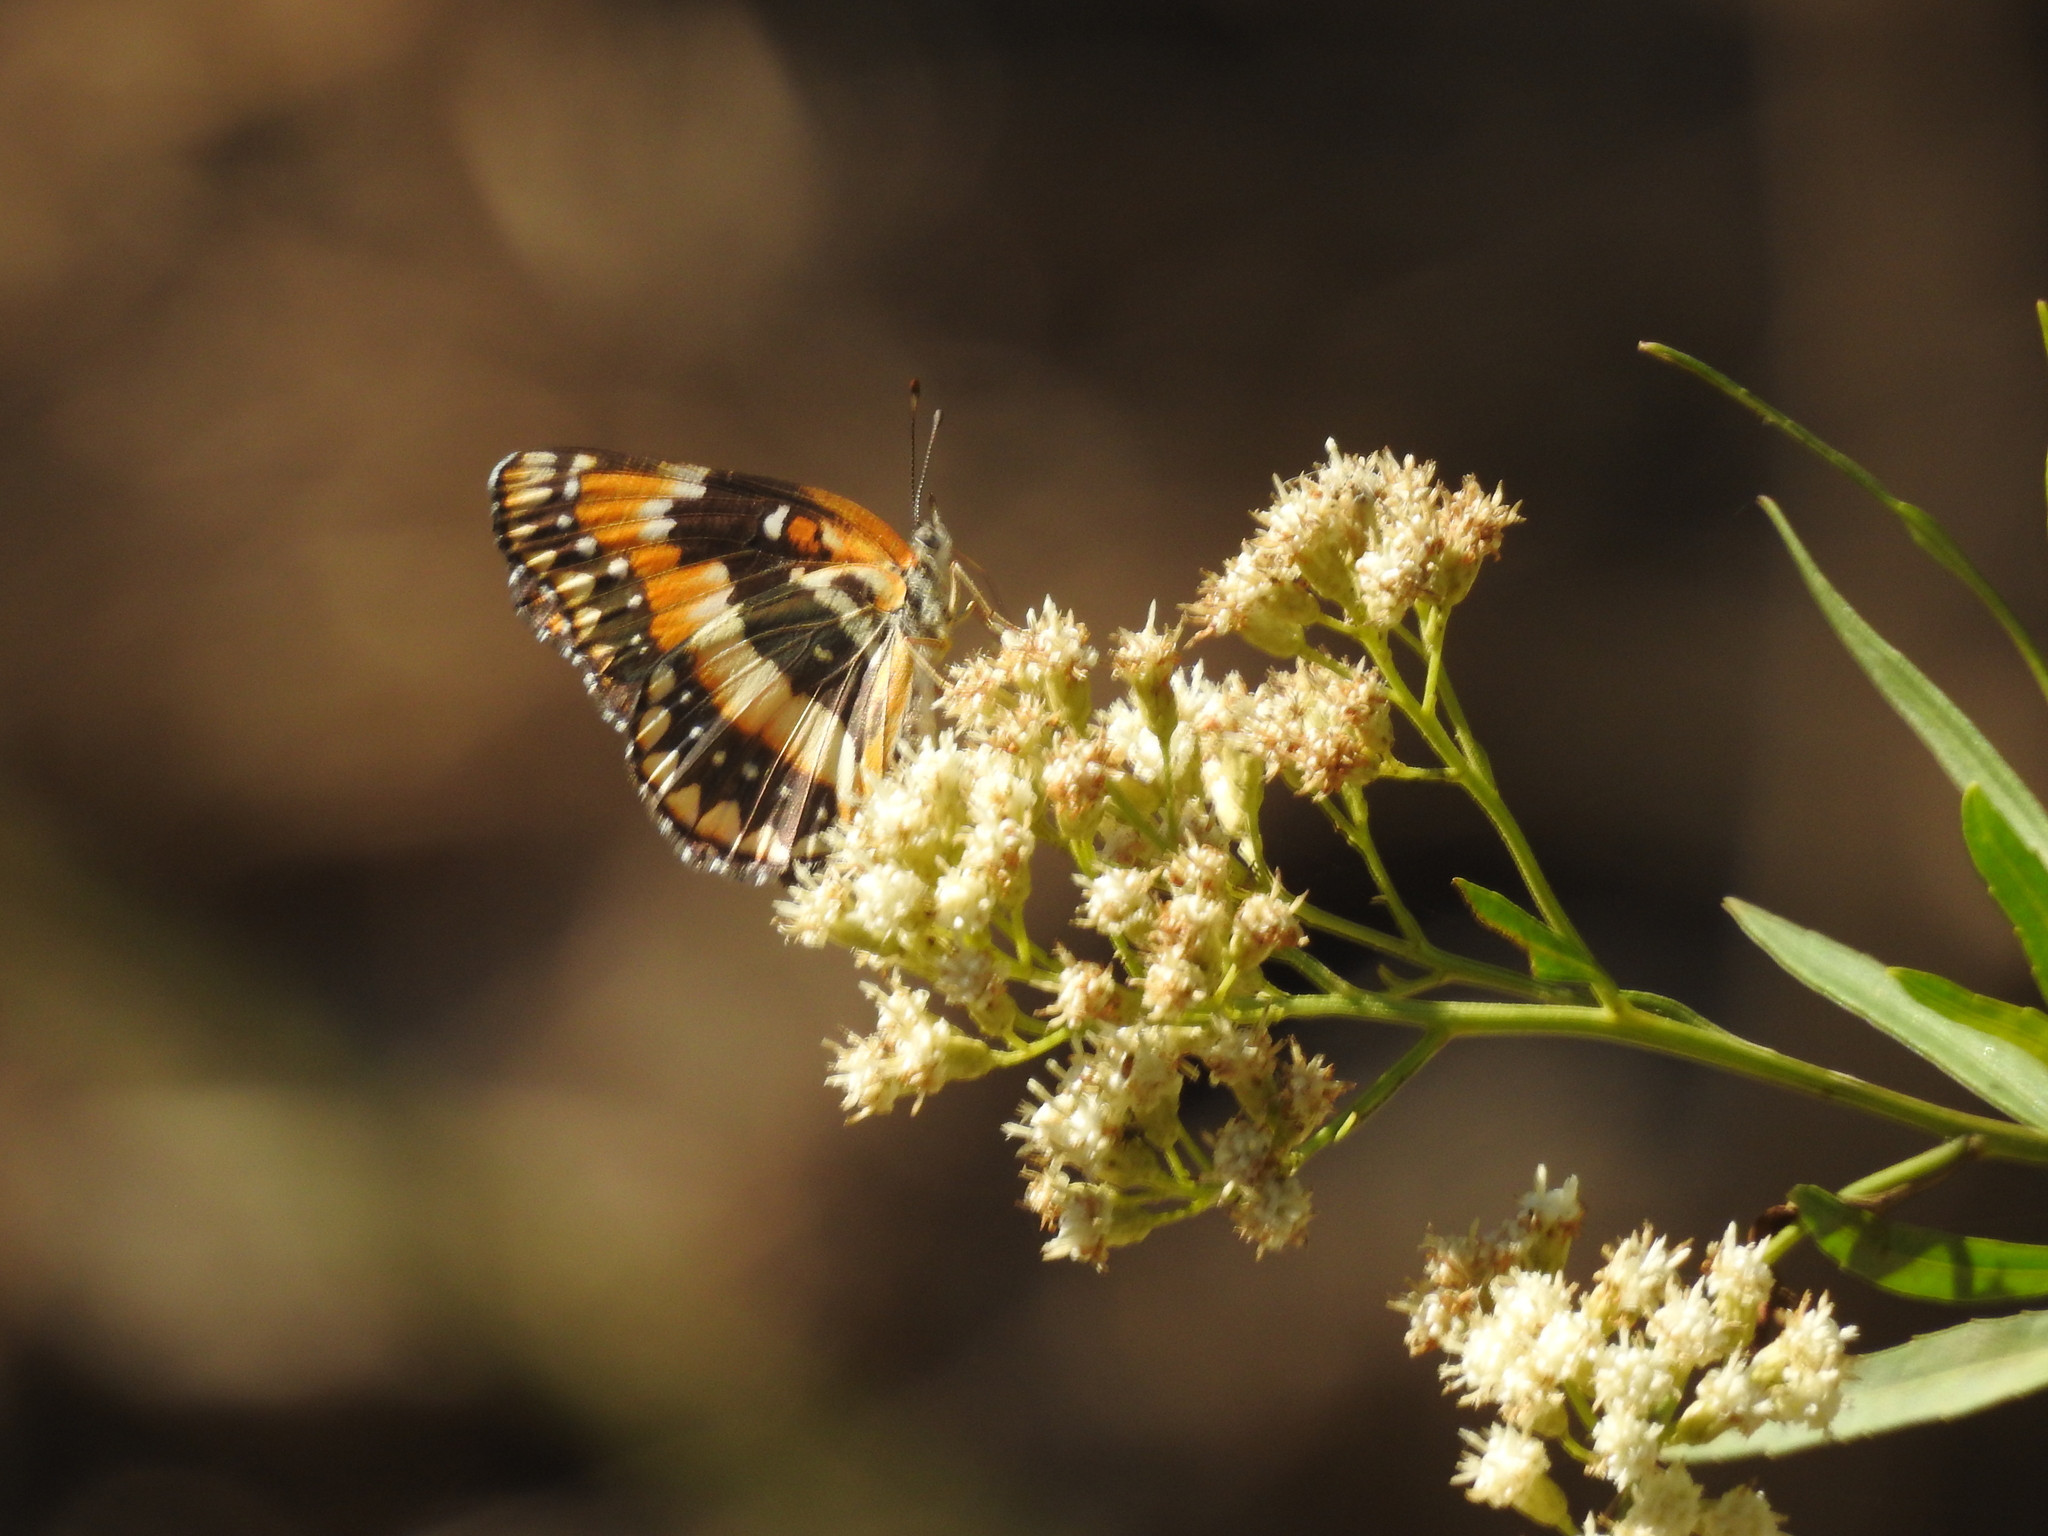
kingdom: Animalia
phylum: Arthropoda
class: Insecta
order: Lepidoptera
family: Nymphalidae
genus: Chlosyne
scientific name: Chlosyne californica
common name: California patch
